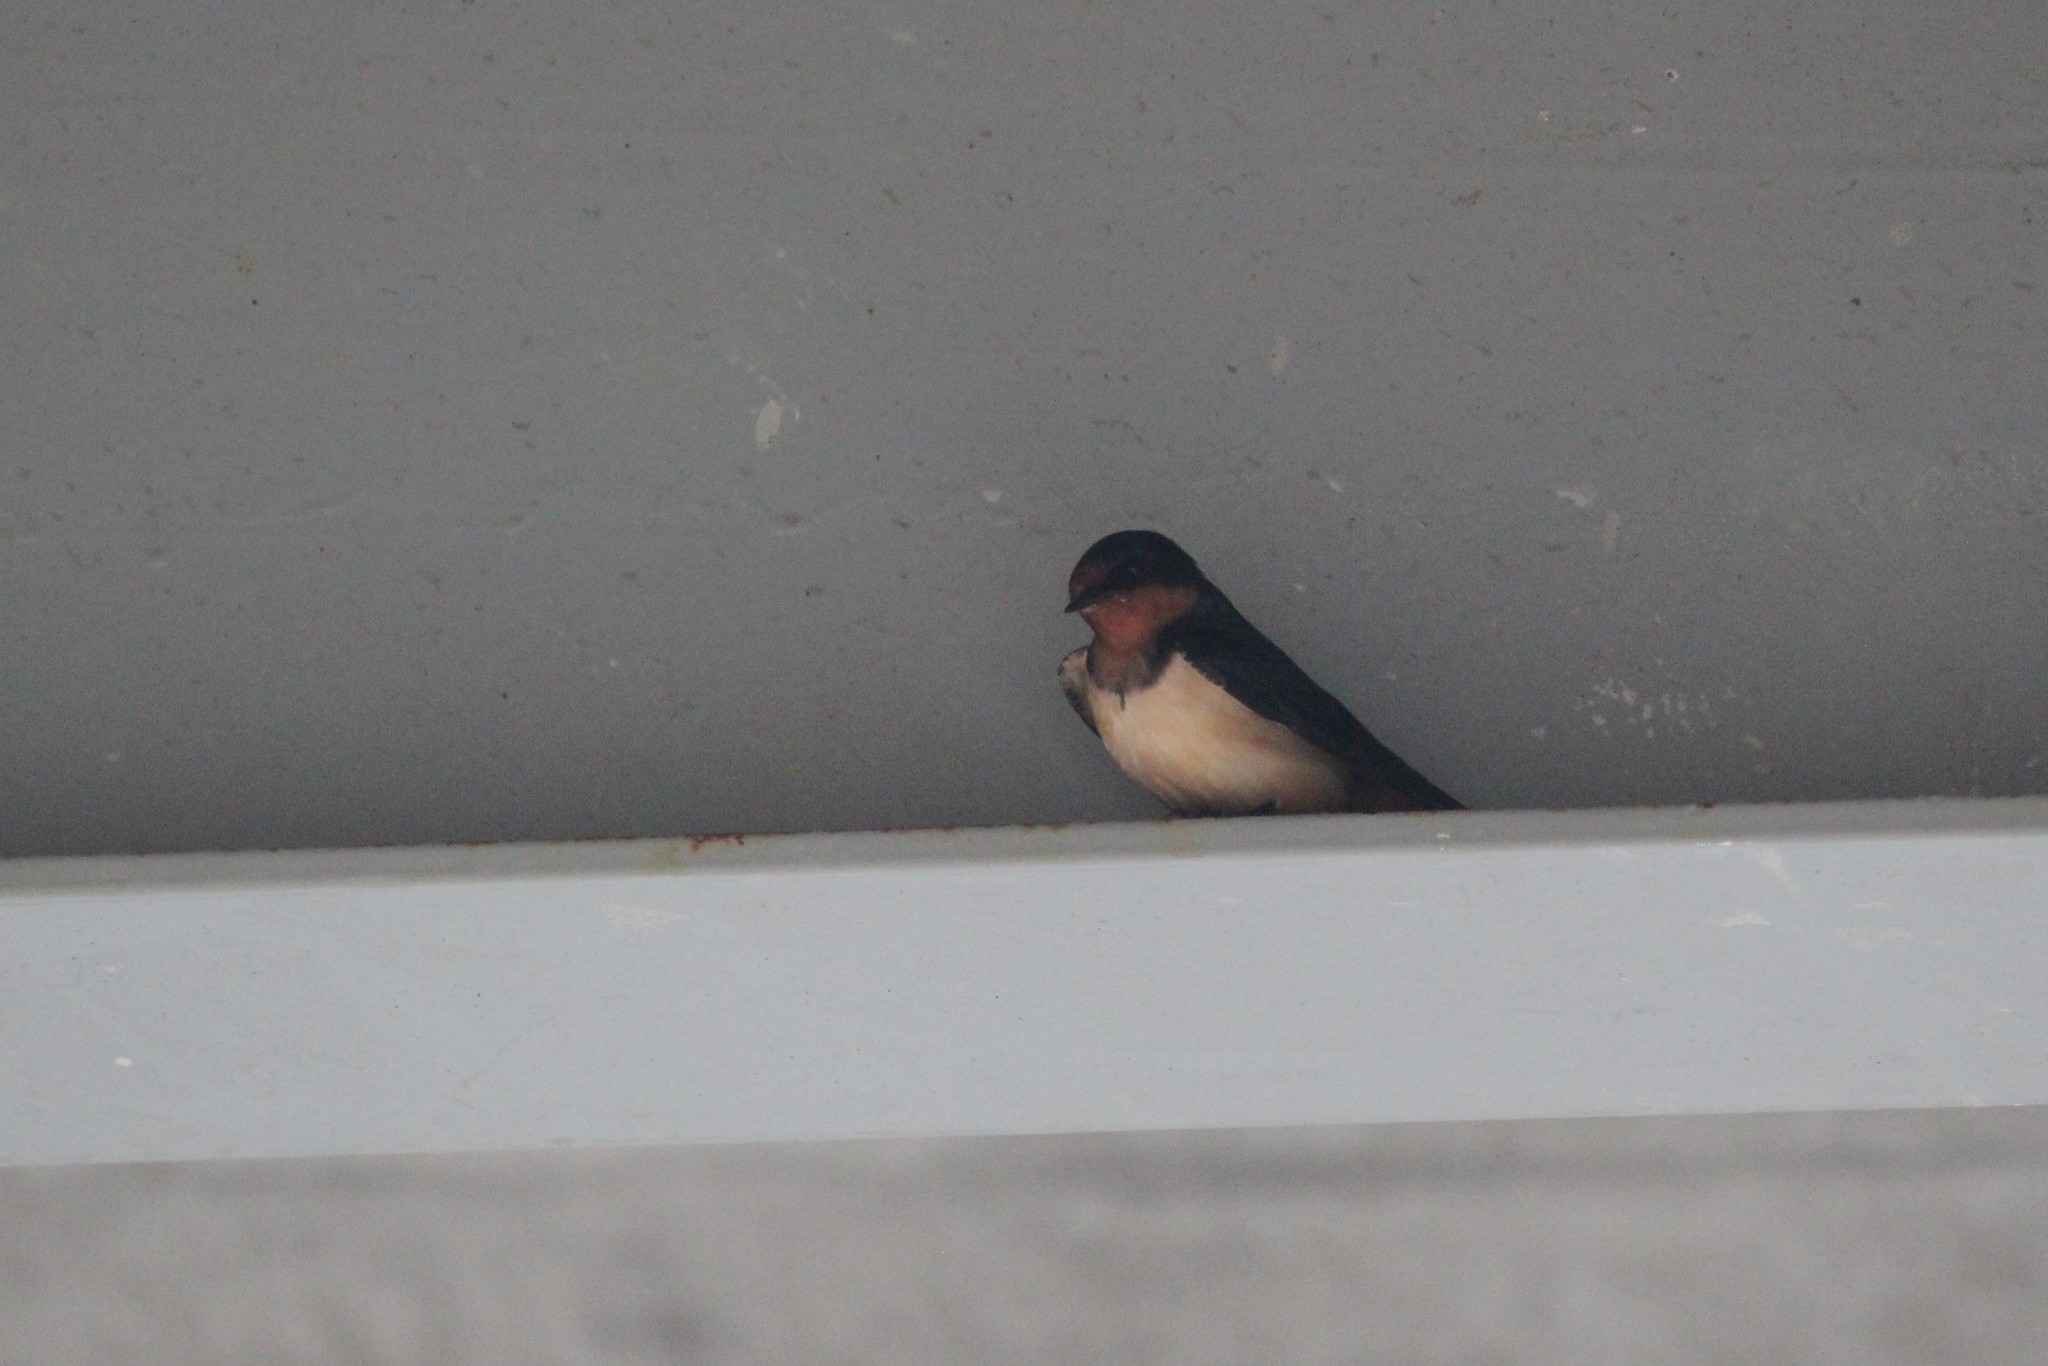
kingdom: Animalia
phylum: Chordata
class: Aves
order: Passeriformes
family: Hirundinidae
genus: Hirundo
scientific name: Hirundo rustica
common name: Barn swallow
